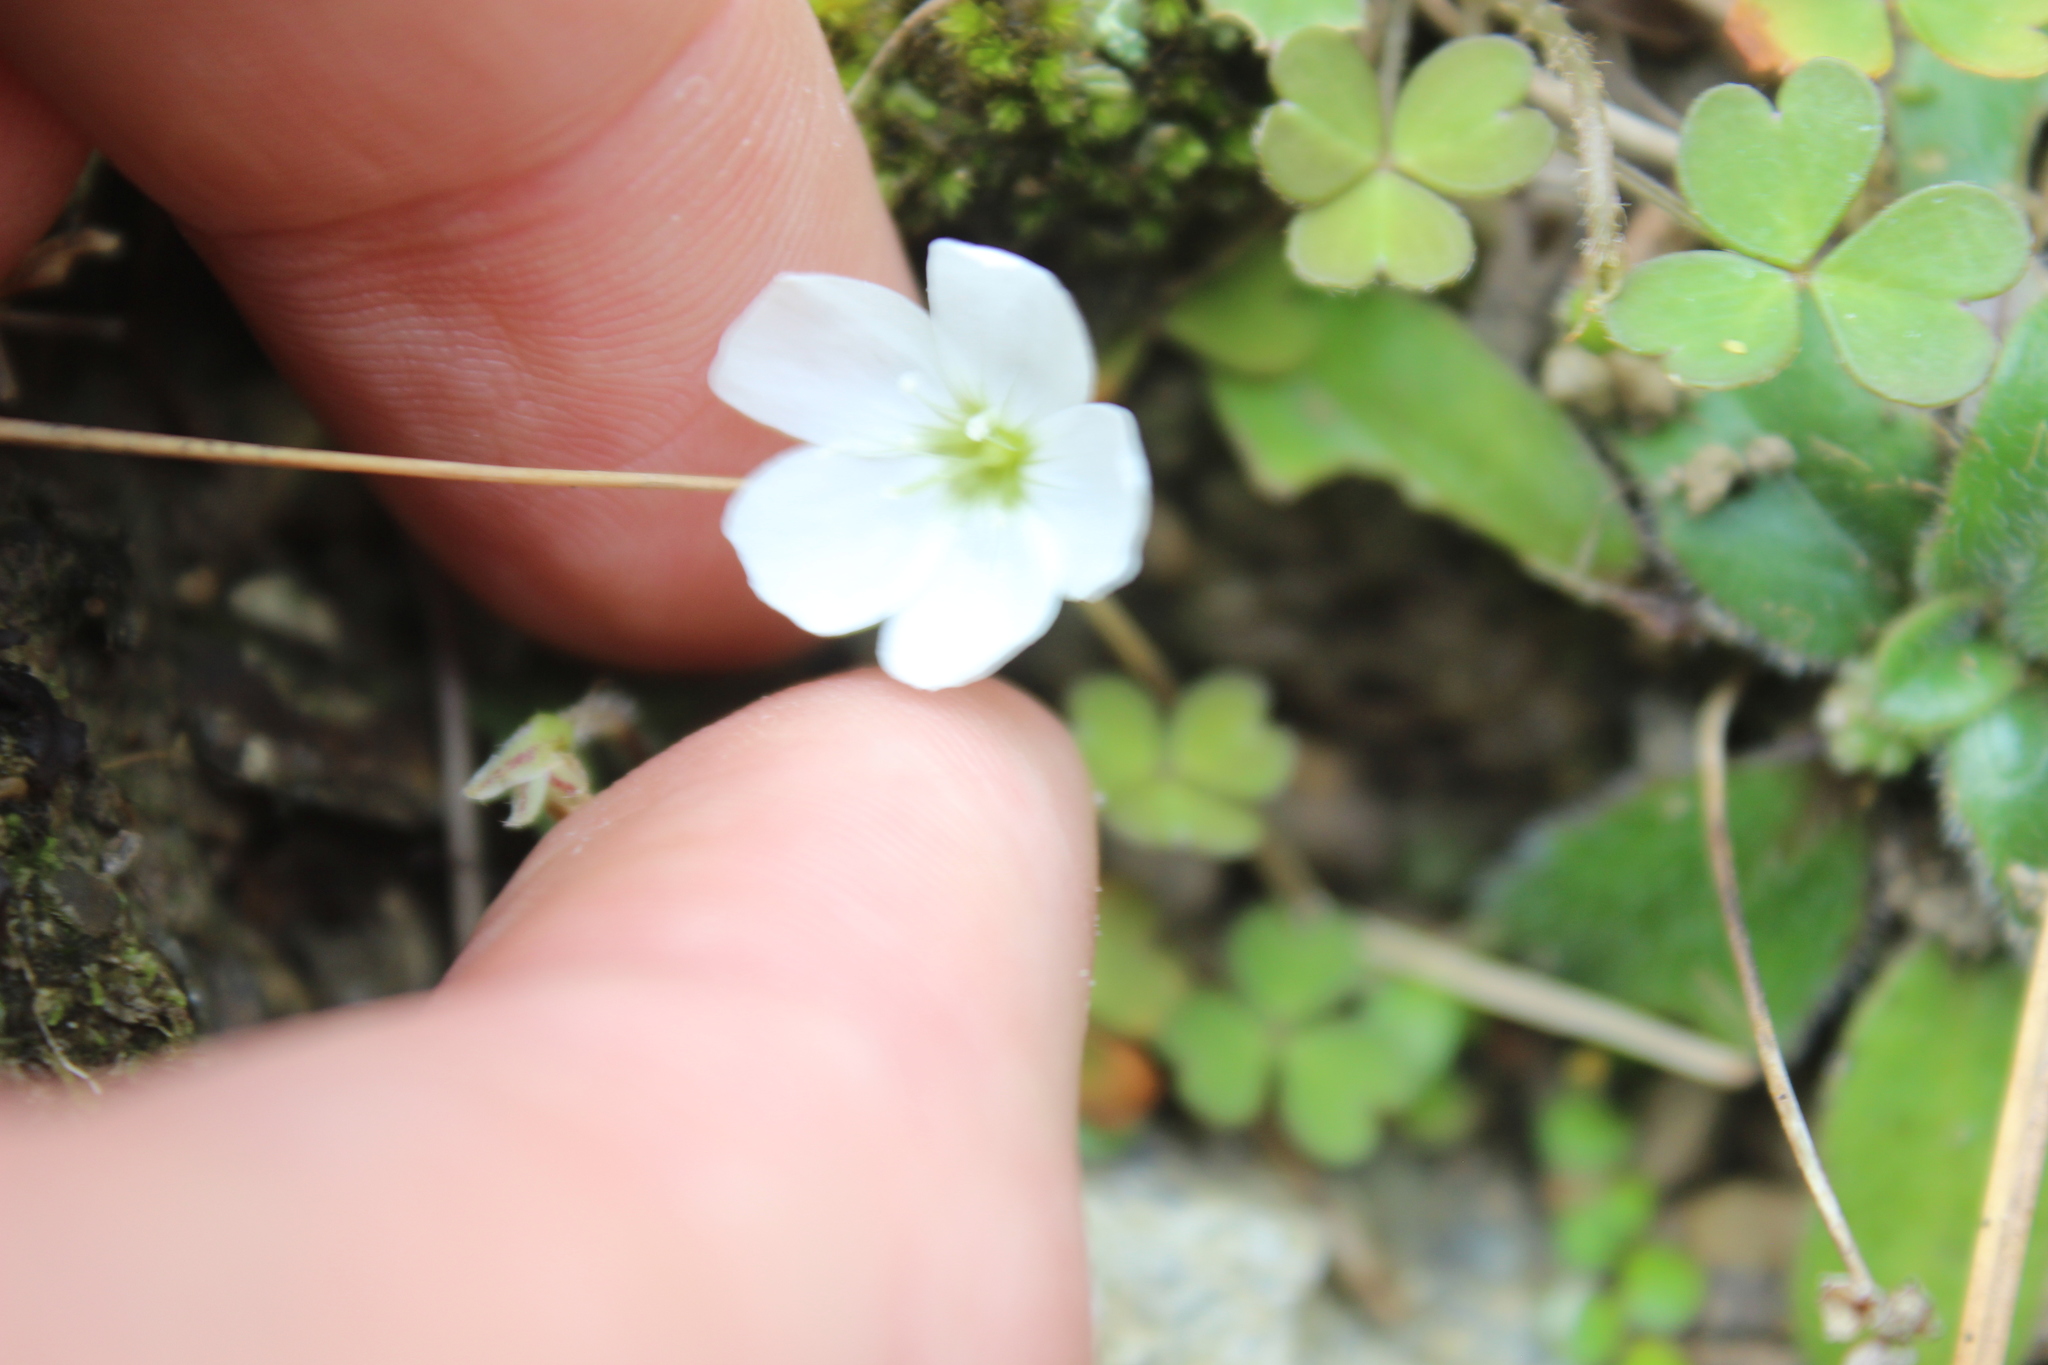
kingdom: Plantae
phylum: Tracheophyta
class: Magnoliopsida
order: Oxalidales
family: Oxalidaceae
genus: Oxalis
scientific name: Oxalis magellanica
